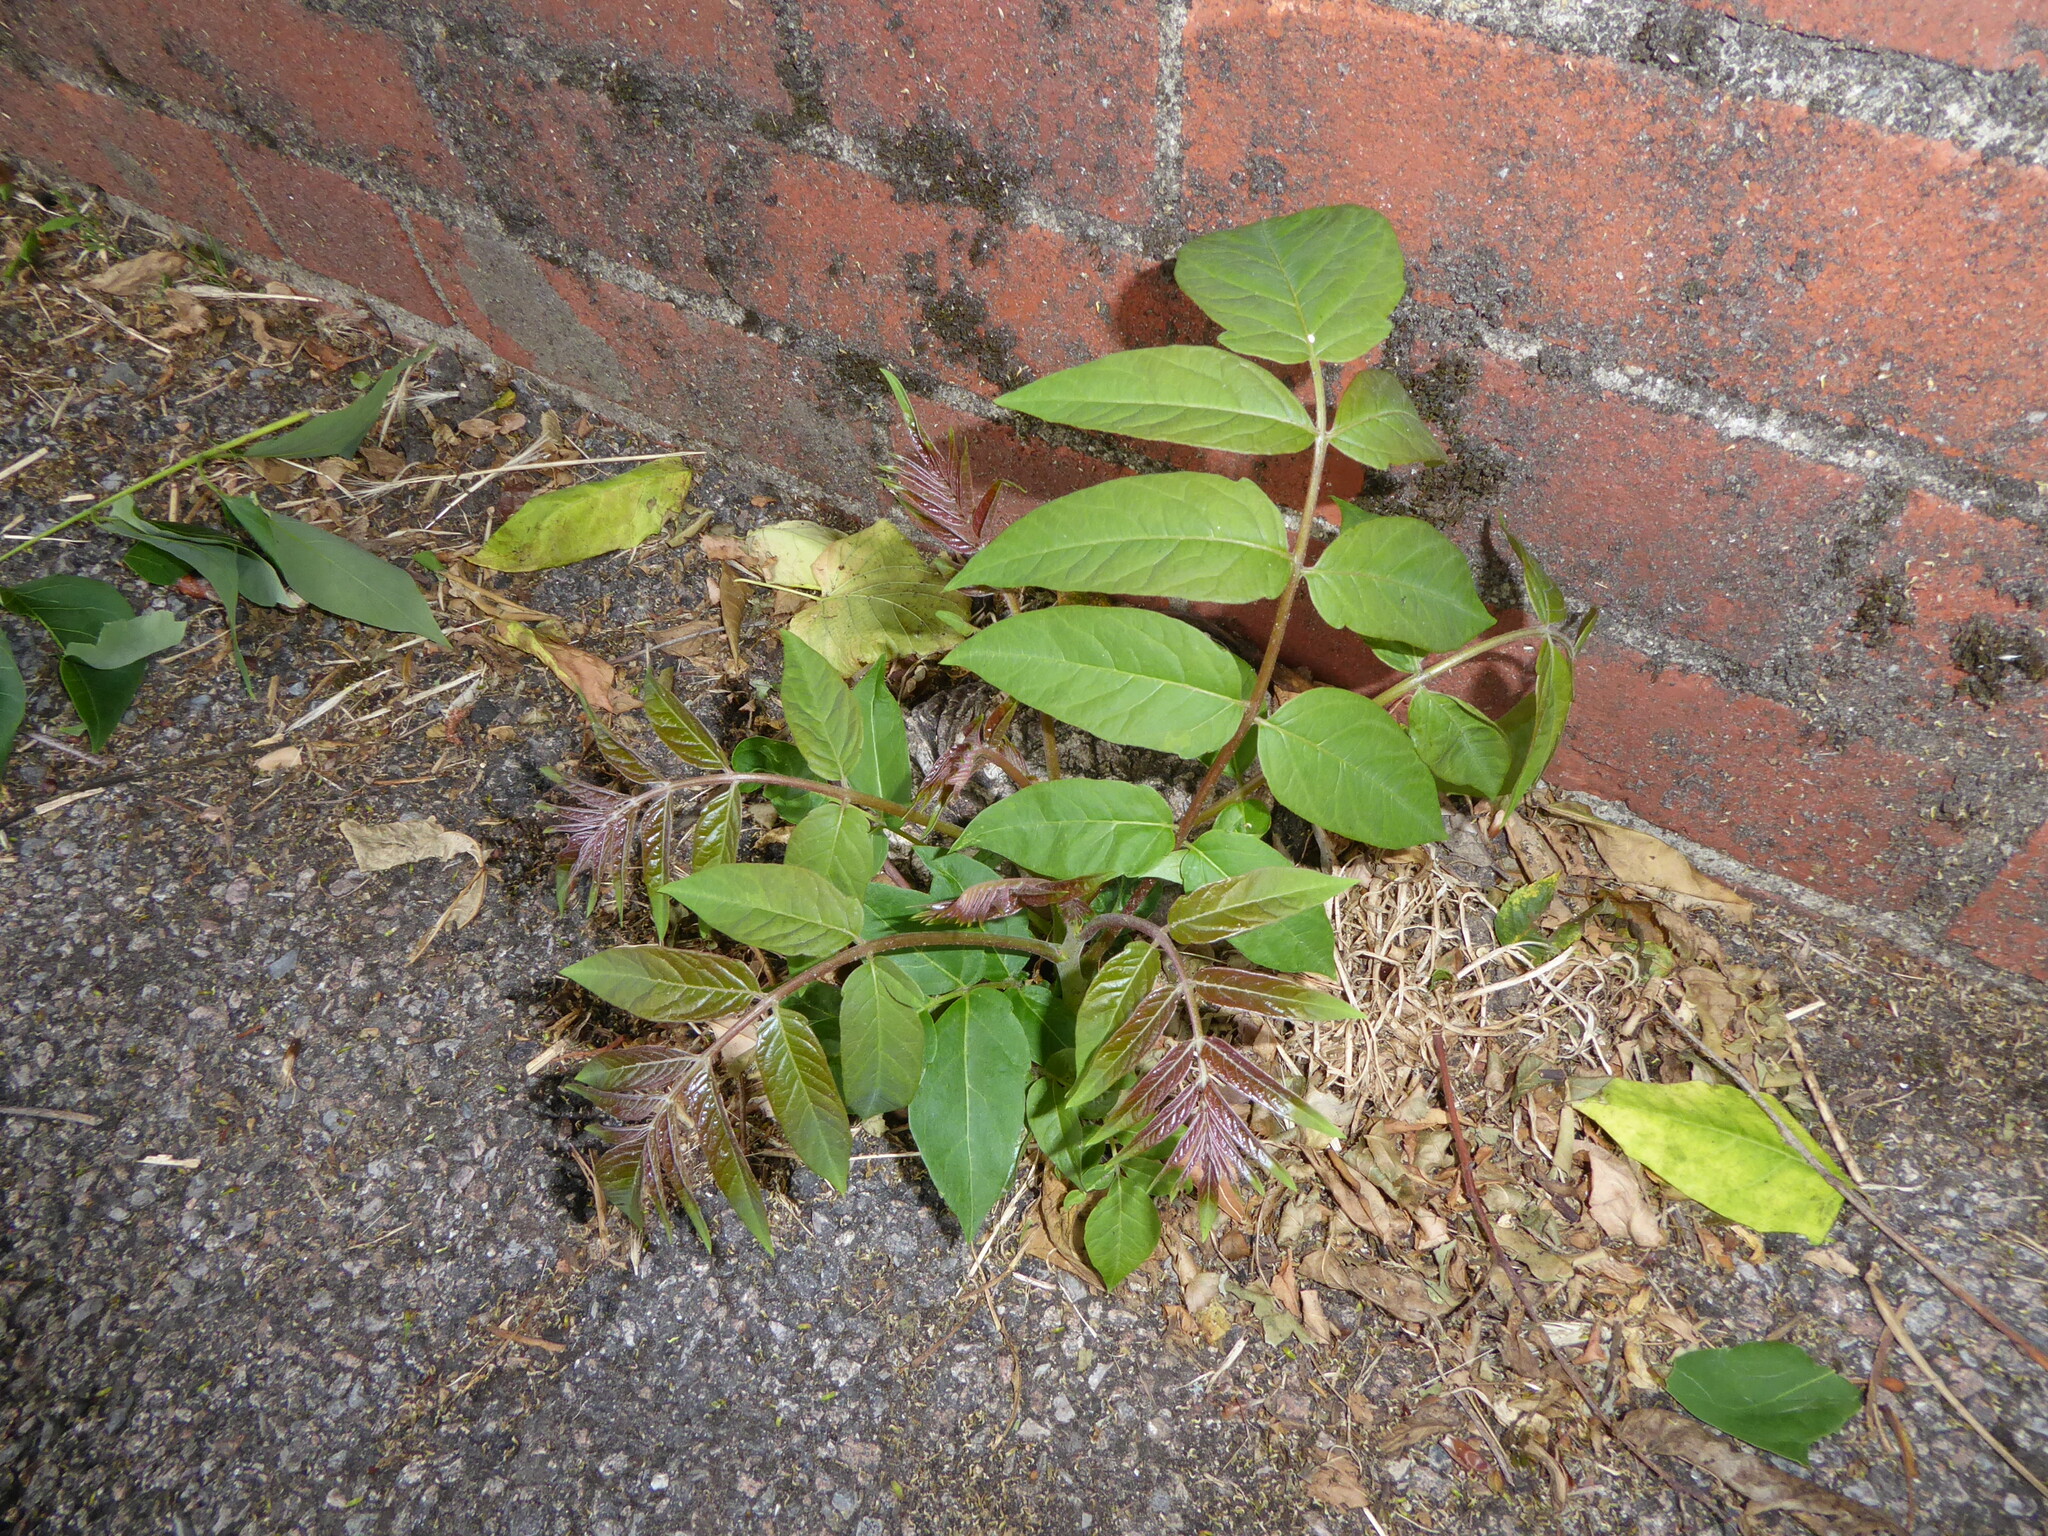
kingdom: Plantae
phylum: Tracheophyta
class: Magnoliopsida
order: Sapindales
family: Simaroubaceae
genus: Ailanthus
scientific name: Ailanthus altissima
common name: Tree-of-heaven
